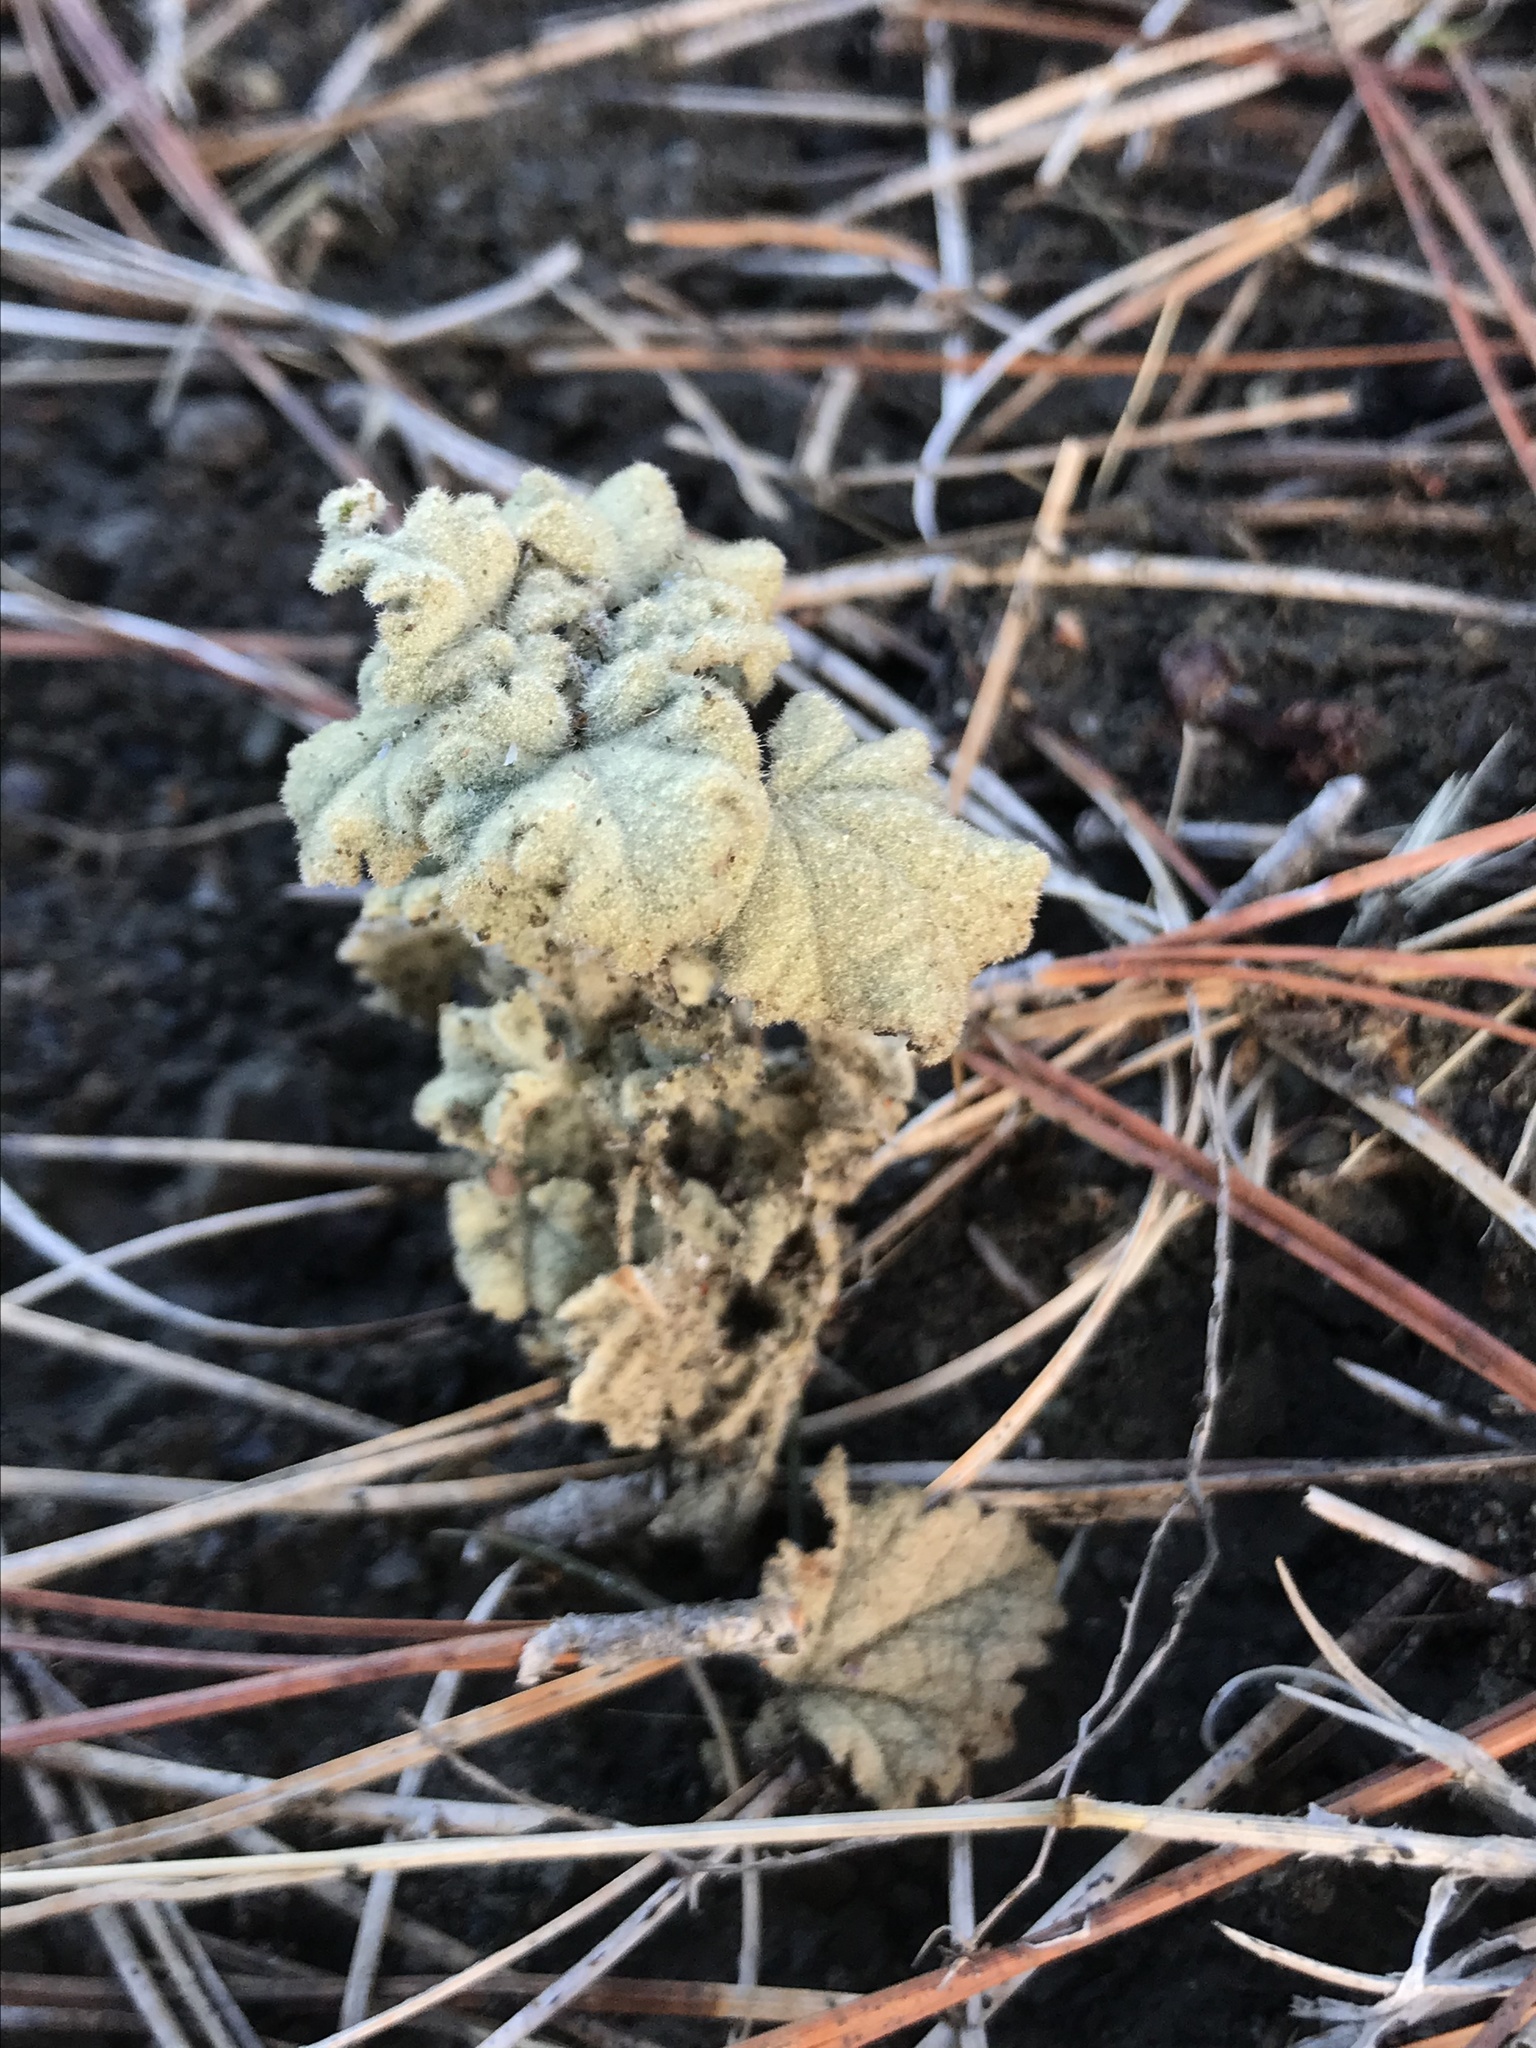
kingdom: Plantae
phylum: Tracheophyta
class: Magnoliopsida
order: Malvales
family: Malvaceae
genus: Malacothamnus
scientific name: Malacothamnus aboriginum
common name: Indian valley bush-mallow
